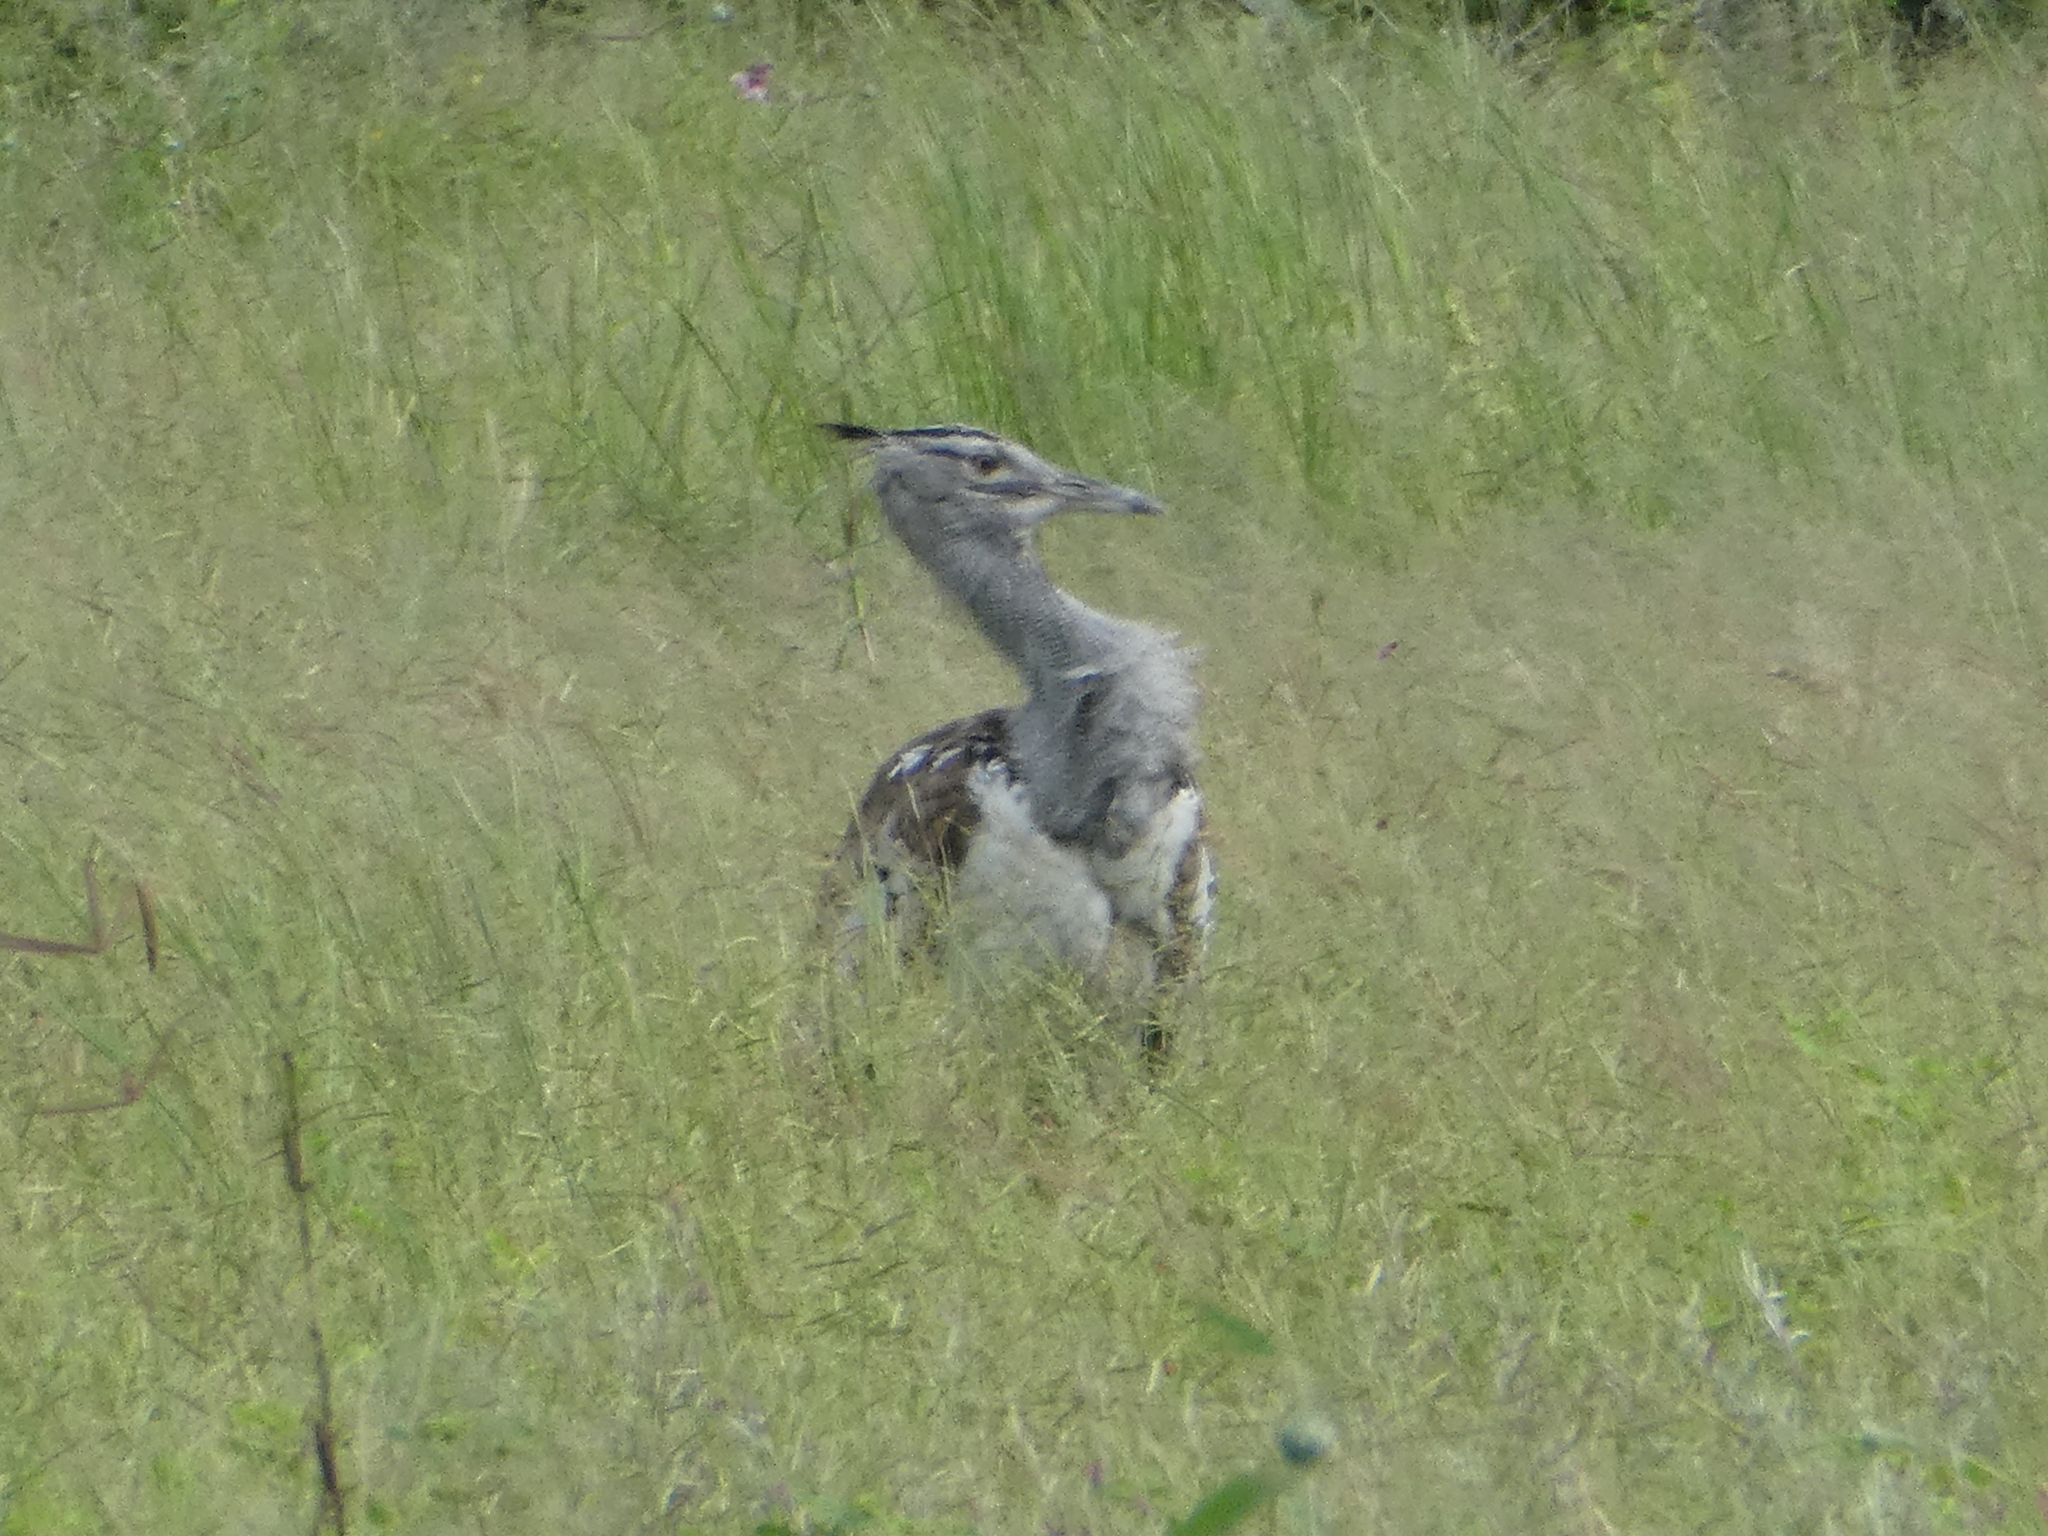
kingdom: Animalia
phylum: Chordata
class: Aves
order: Otidiformes
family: Otididae
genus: Ardeotis
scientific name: Ardeotis kori
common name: Kori bustard
